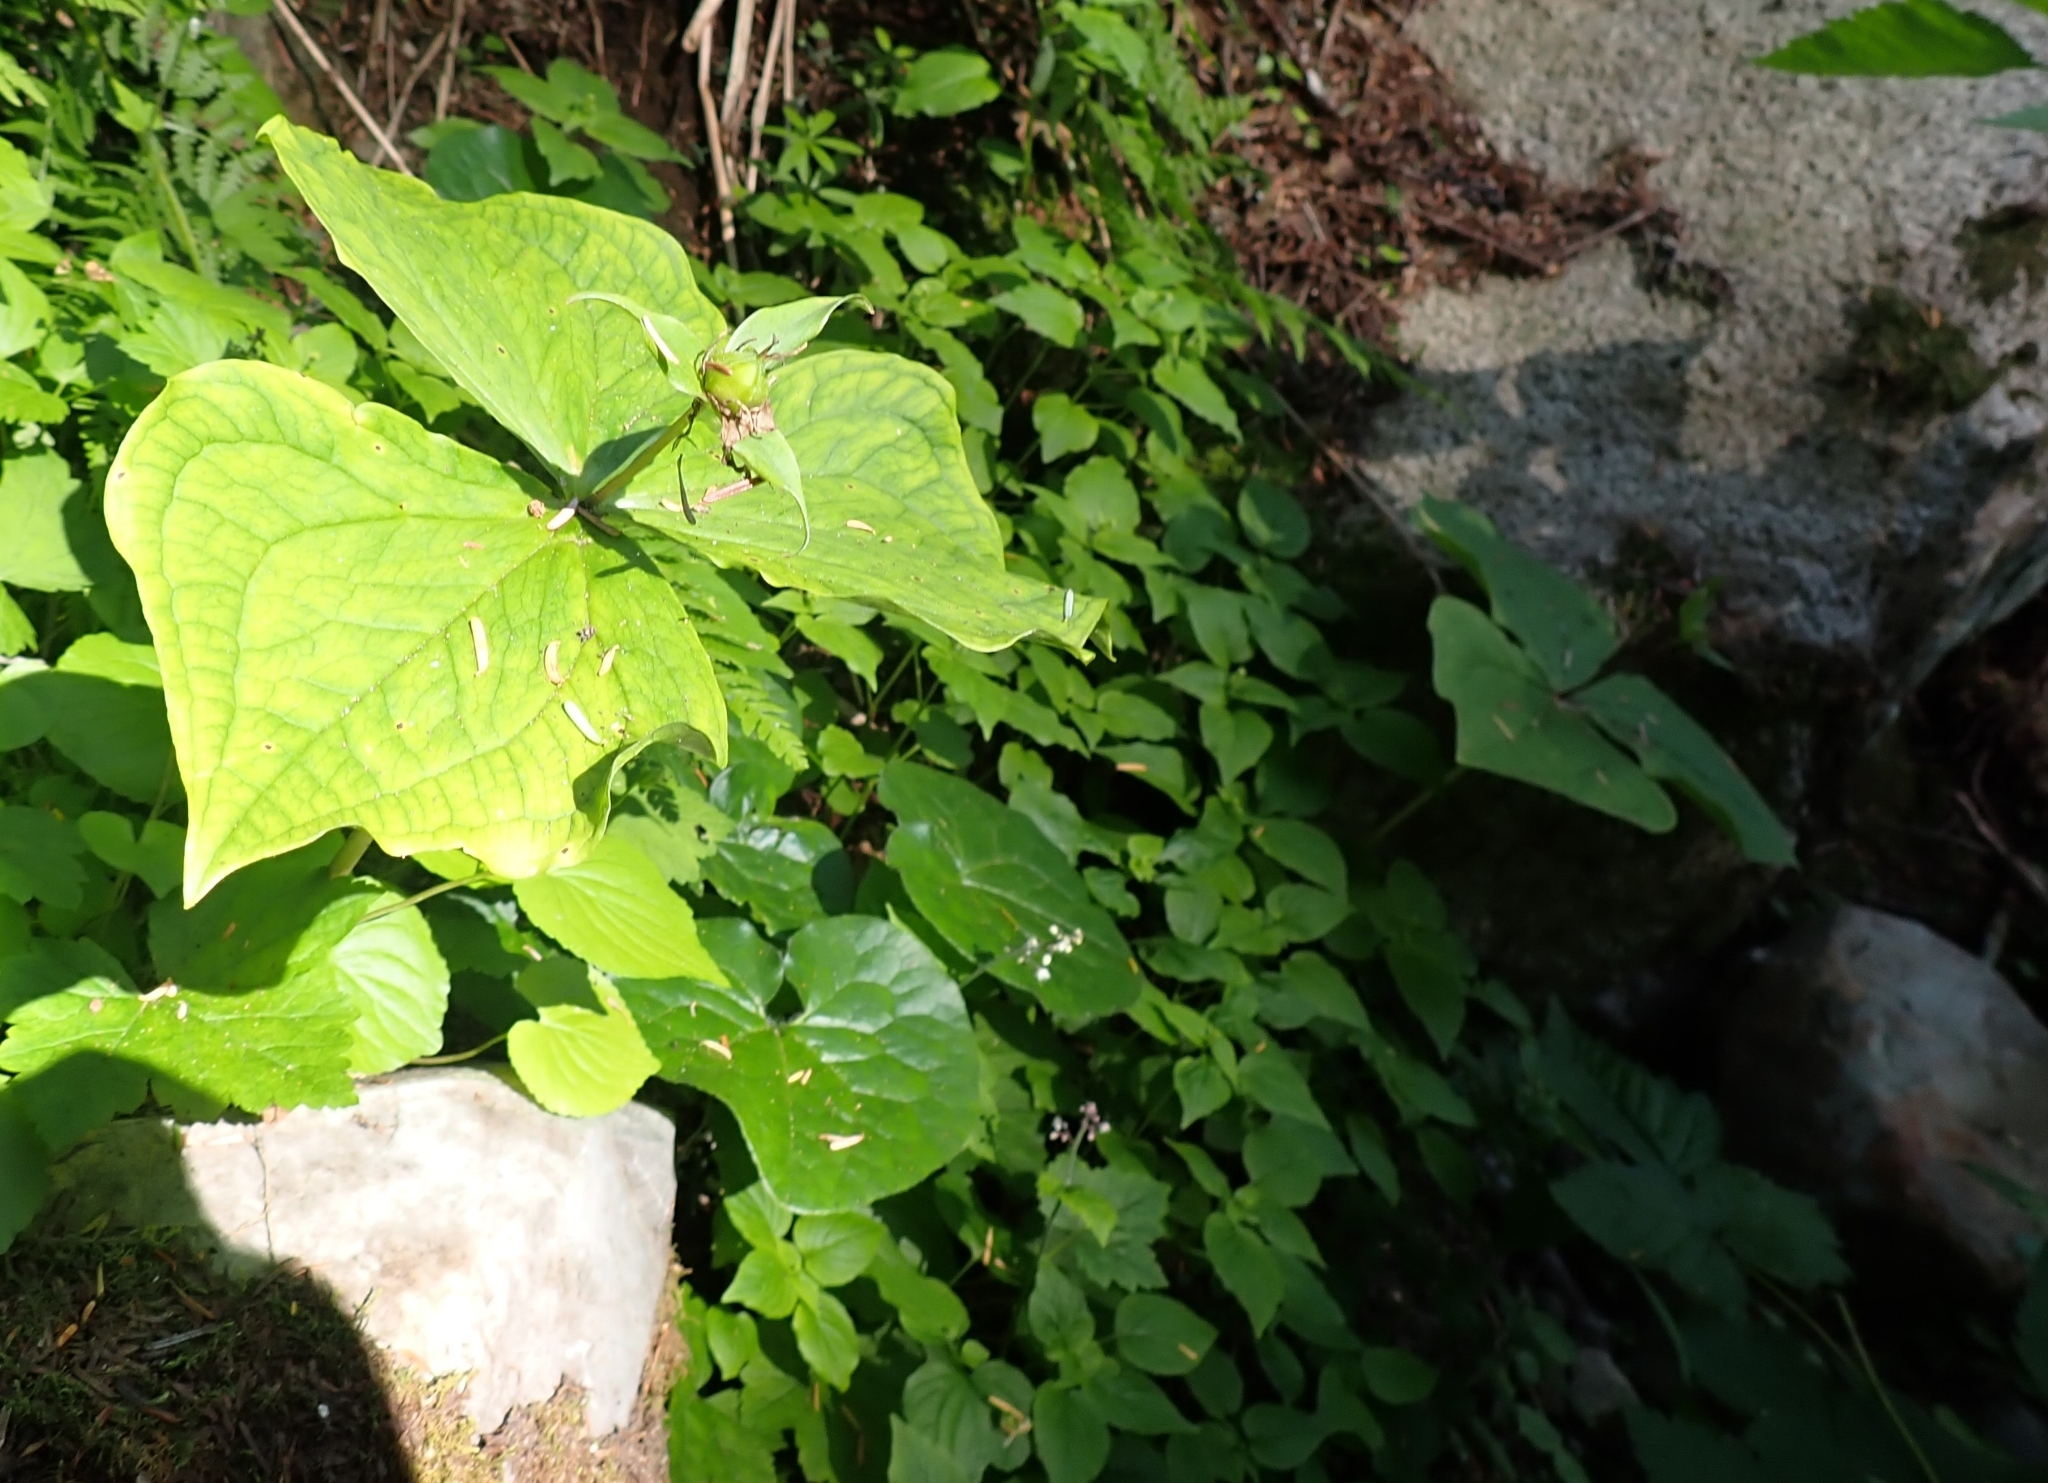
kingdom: Plantae
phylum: Tracheophyta
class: Liliopsida
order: Liliales
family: Melanthiaceae
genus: Trillium
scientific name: Trillium ovatum
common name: Pacific trillium
